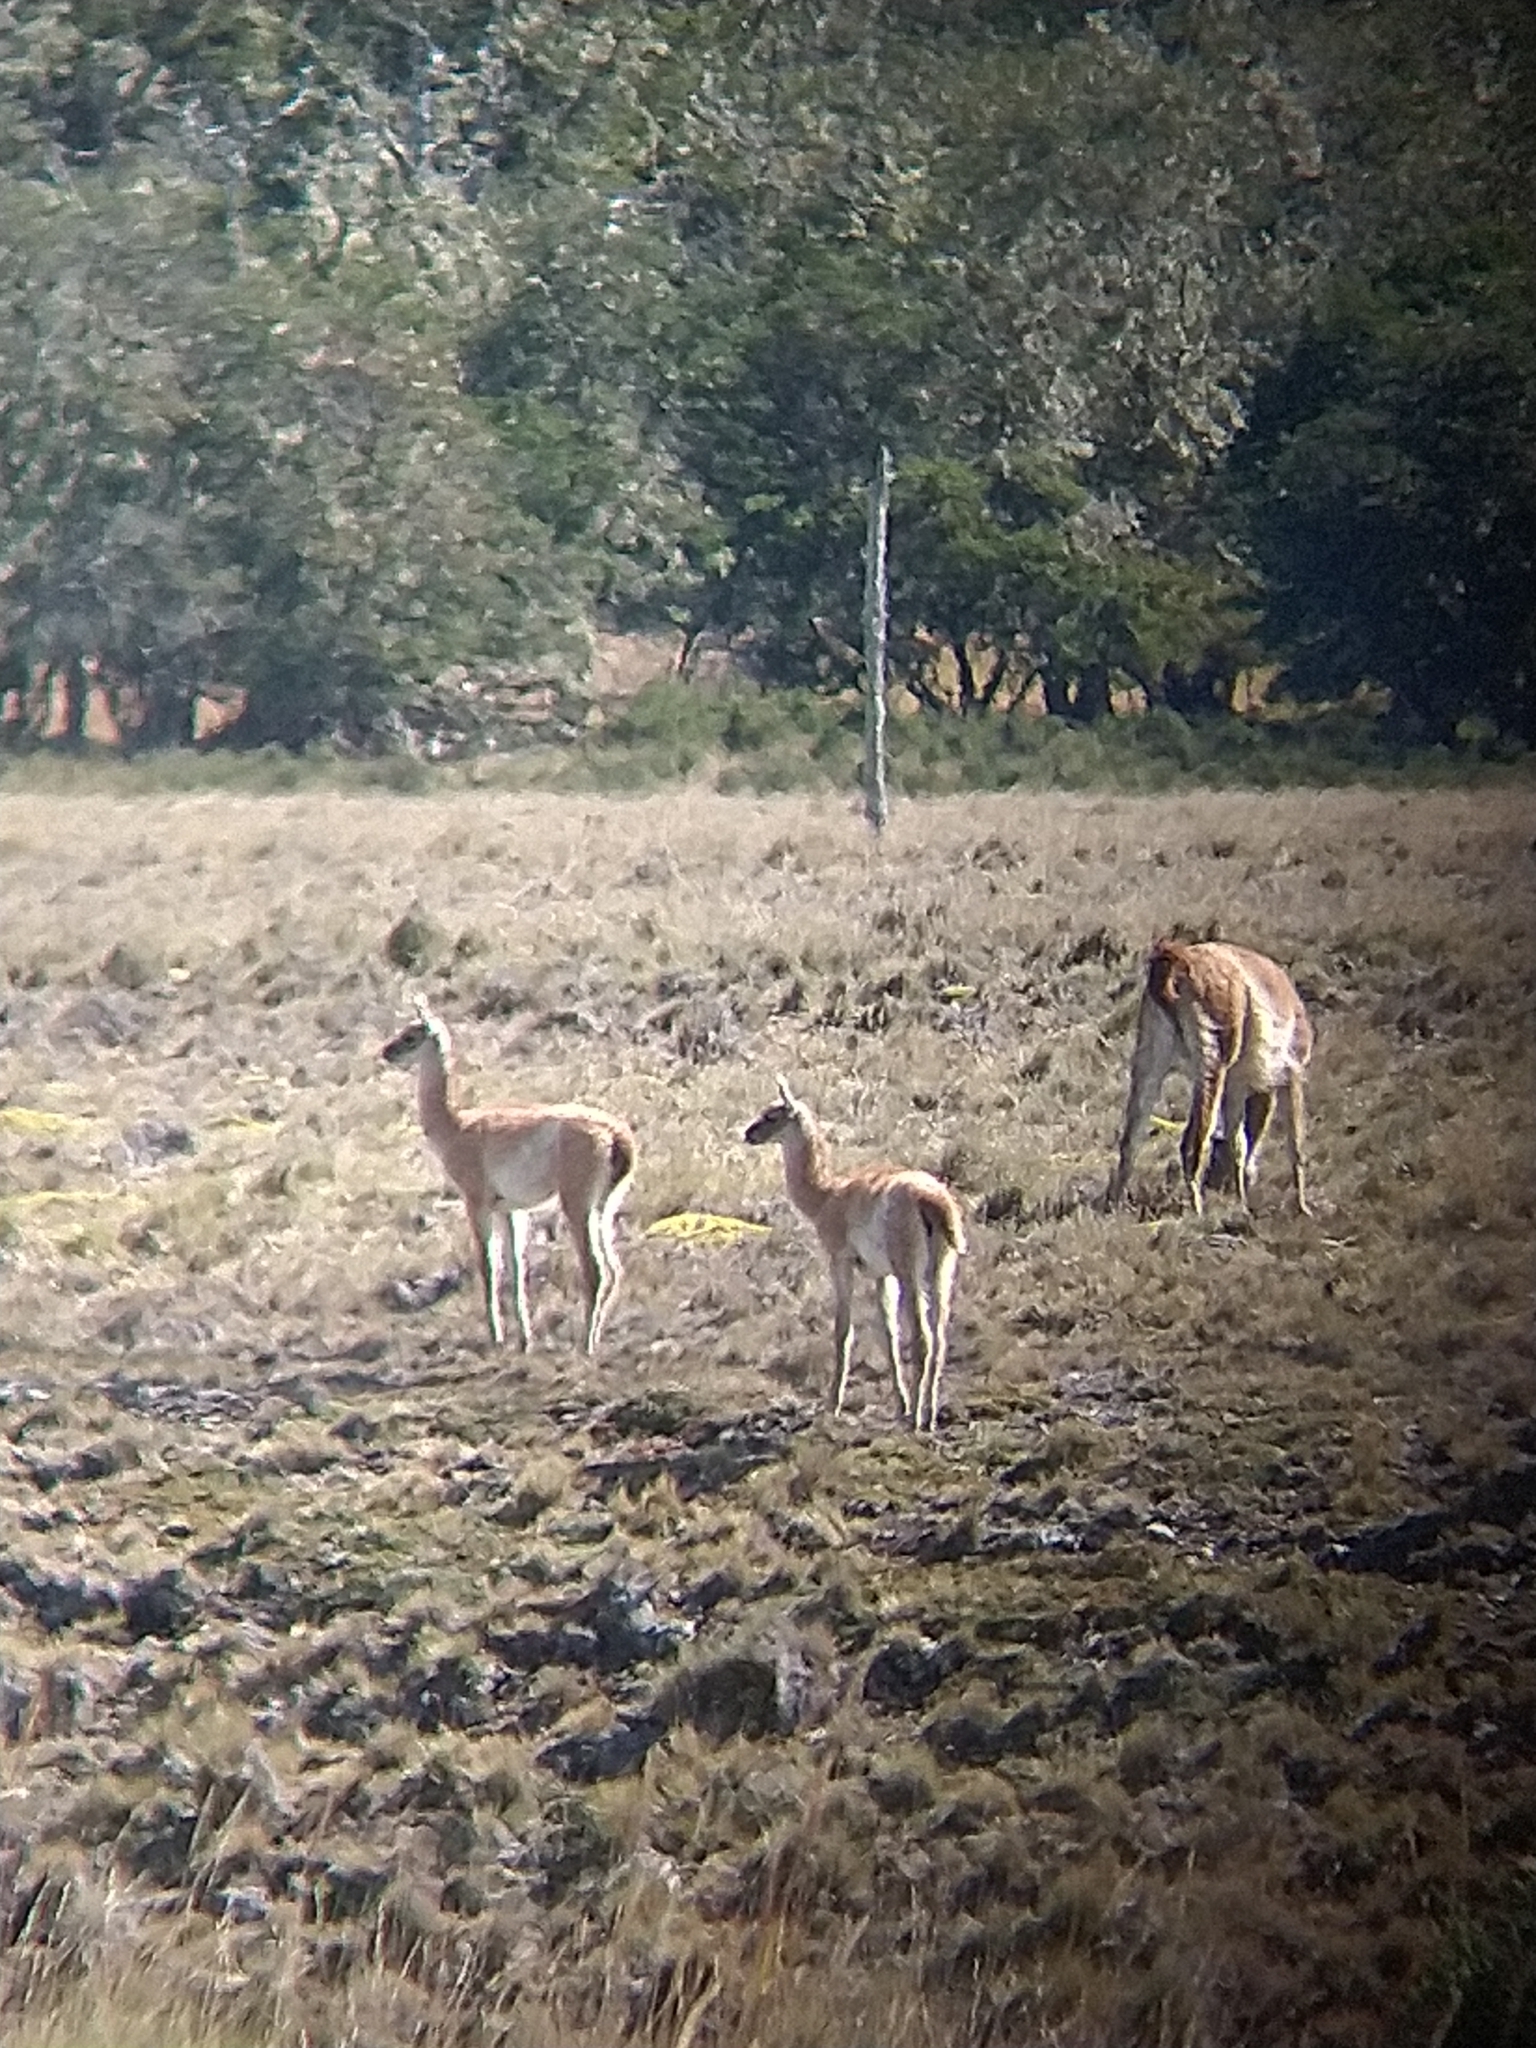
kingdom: Animalia
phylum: Chordata
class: Mammalia
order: Artiodactyla
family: Camelidae
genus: Lama
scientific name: Lama glama
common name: Llama
